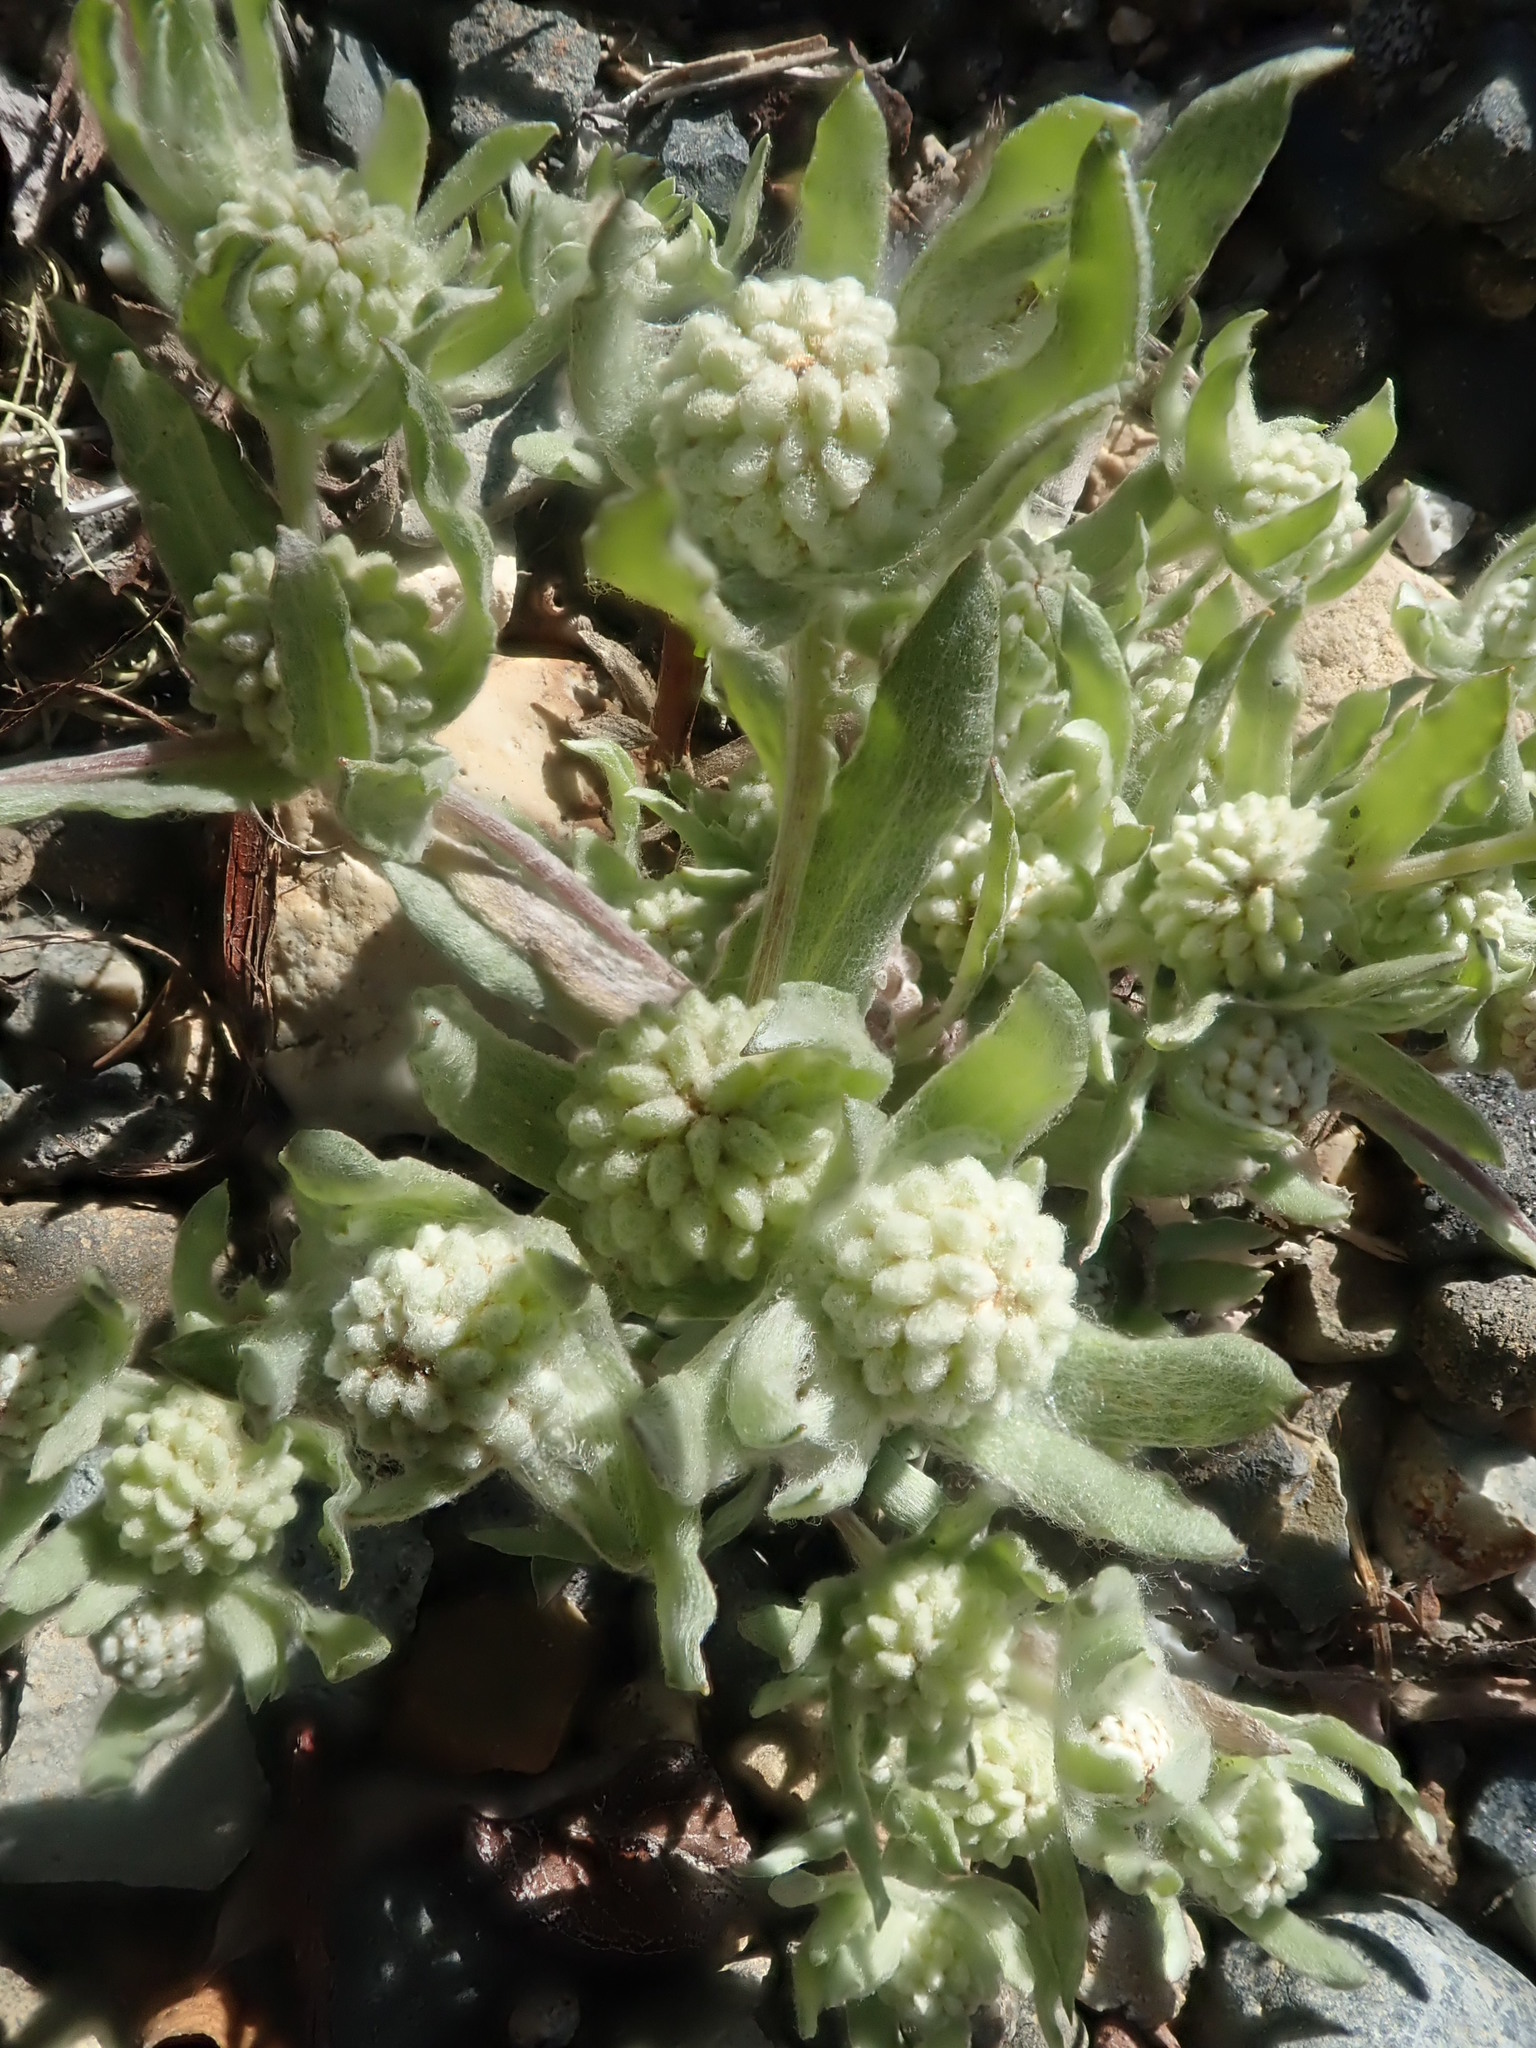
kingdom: Plantae
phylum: Tracheophyta
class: Magnoliopsida
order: Asterales
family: Asteraceae
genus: Psilocarphus
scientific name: Psilocarphus elatior
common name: Meadow woollyheads
